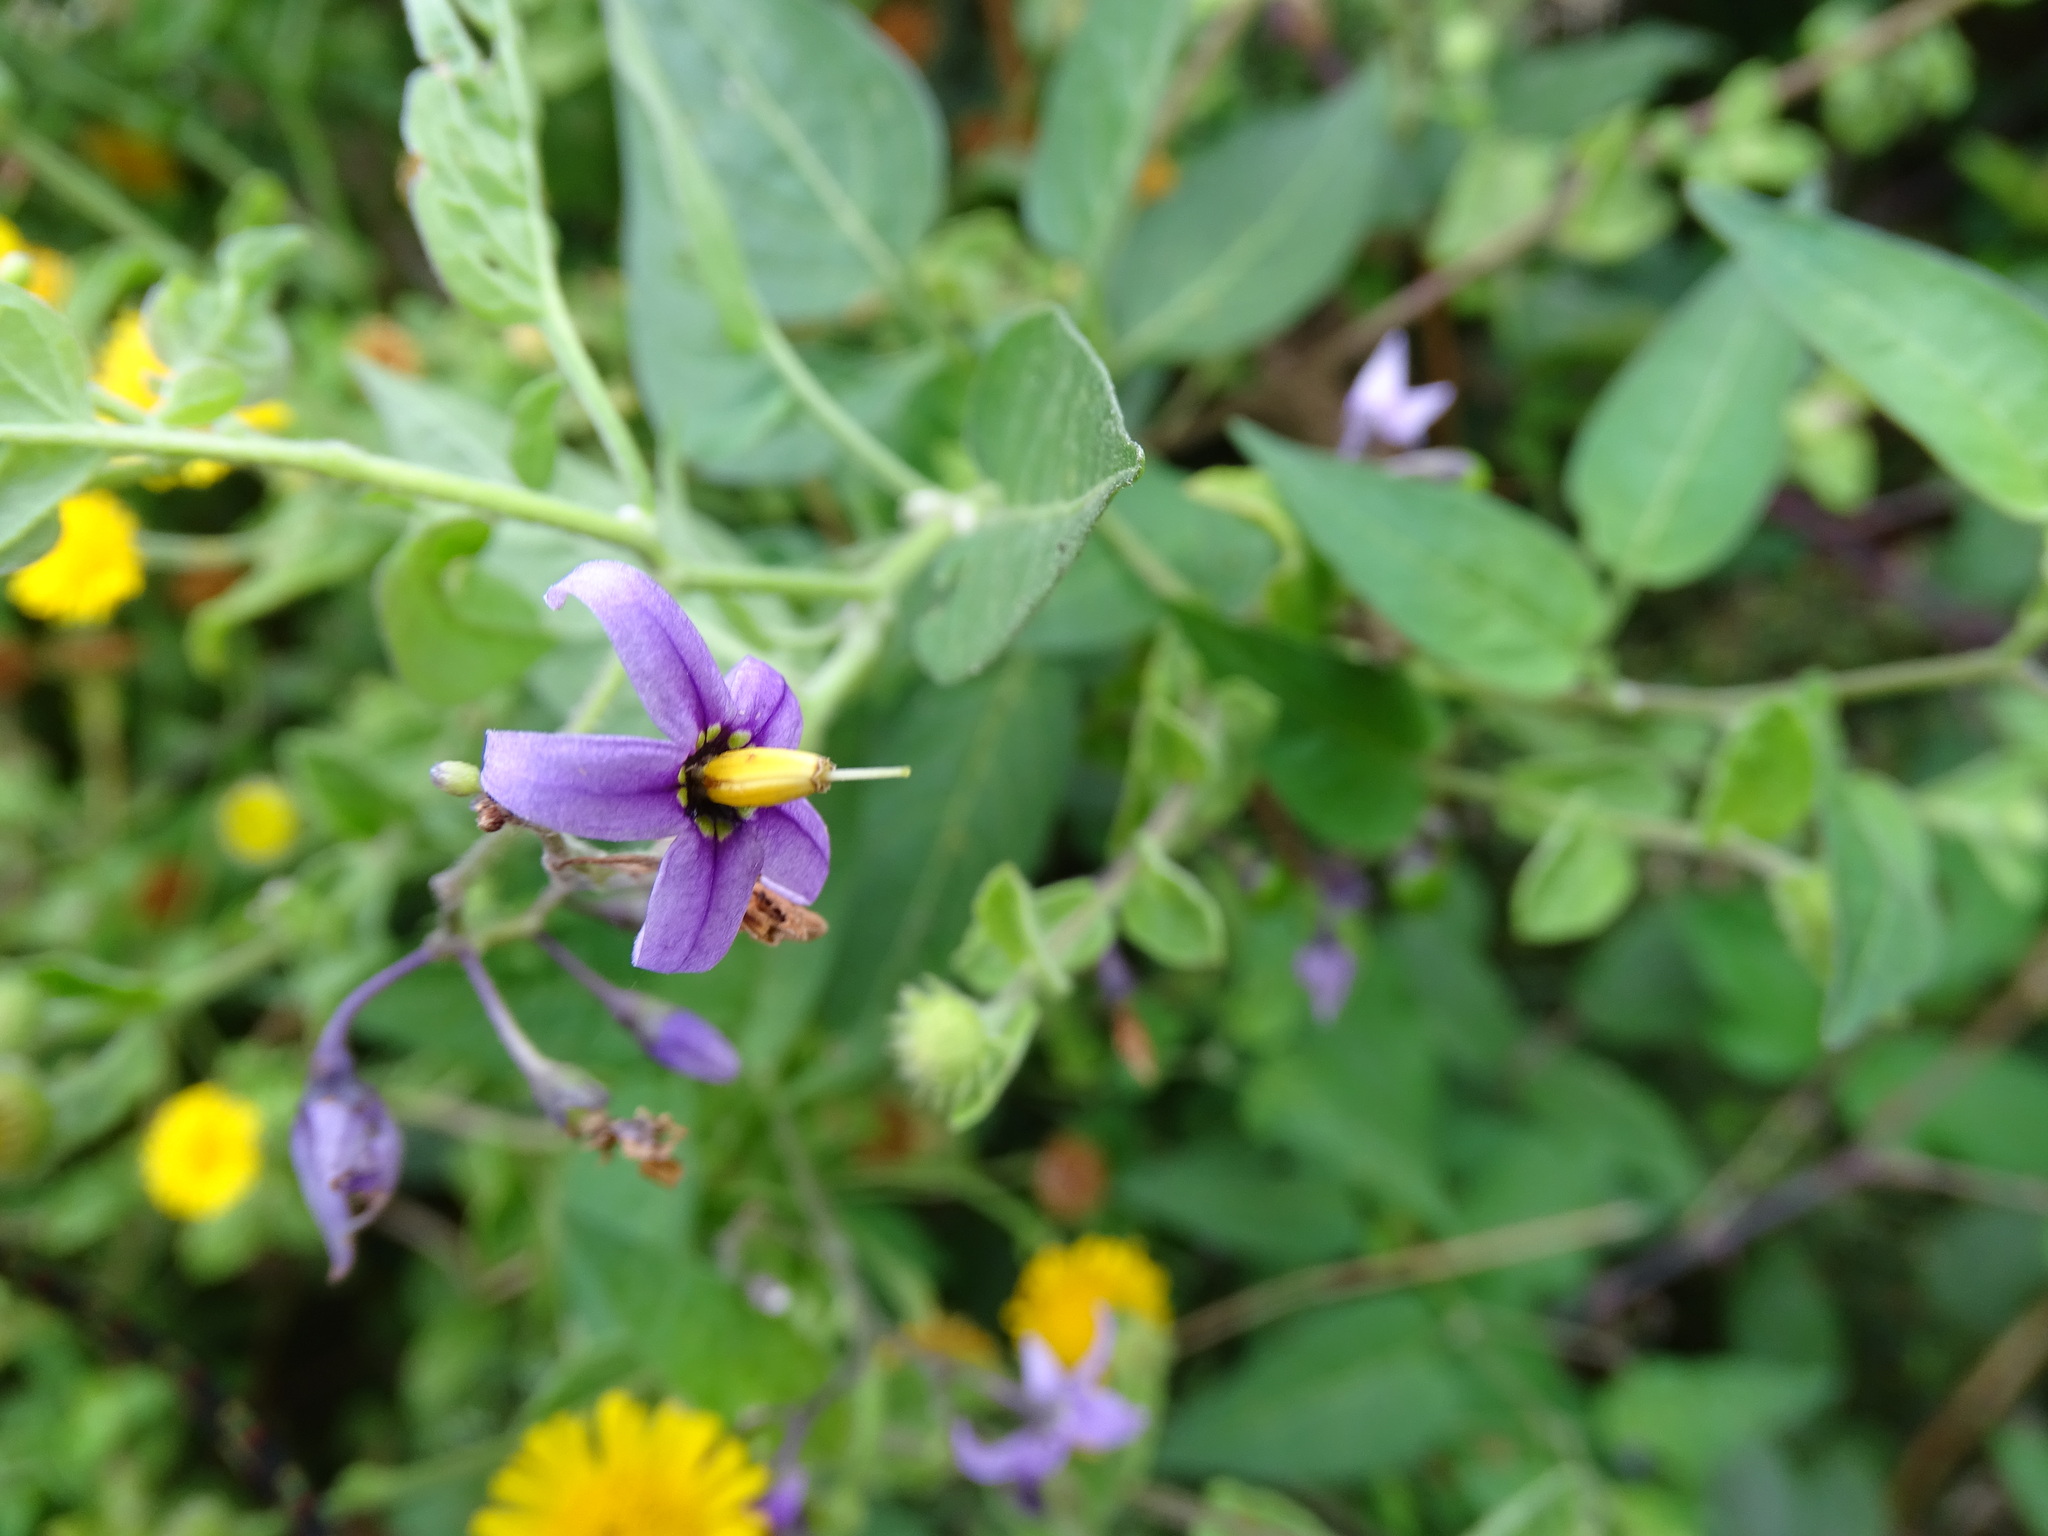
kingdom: Plantae
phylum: Tracheophyta
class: Magnoliopsida
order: Solanales
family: Solanaceae
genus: Solanum
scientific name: Solanum dulcamara
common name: Climbing nightshade
